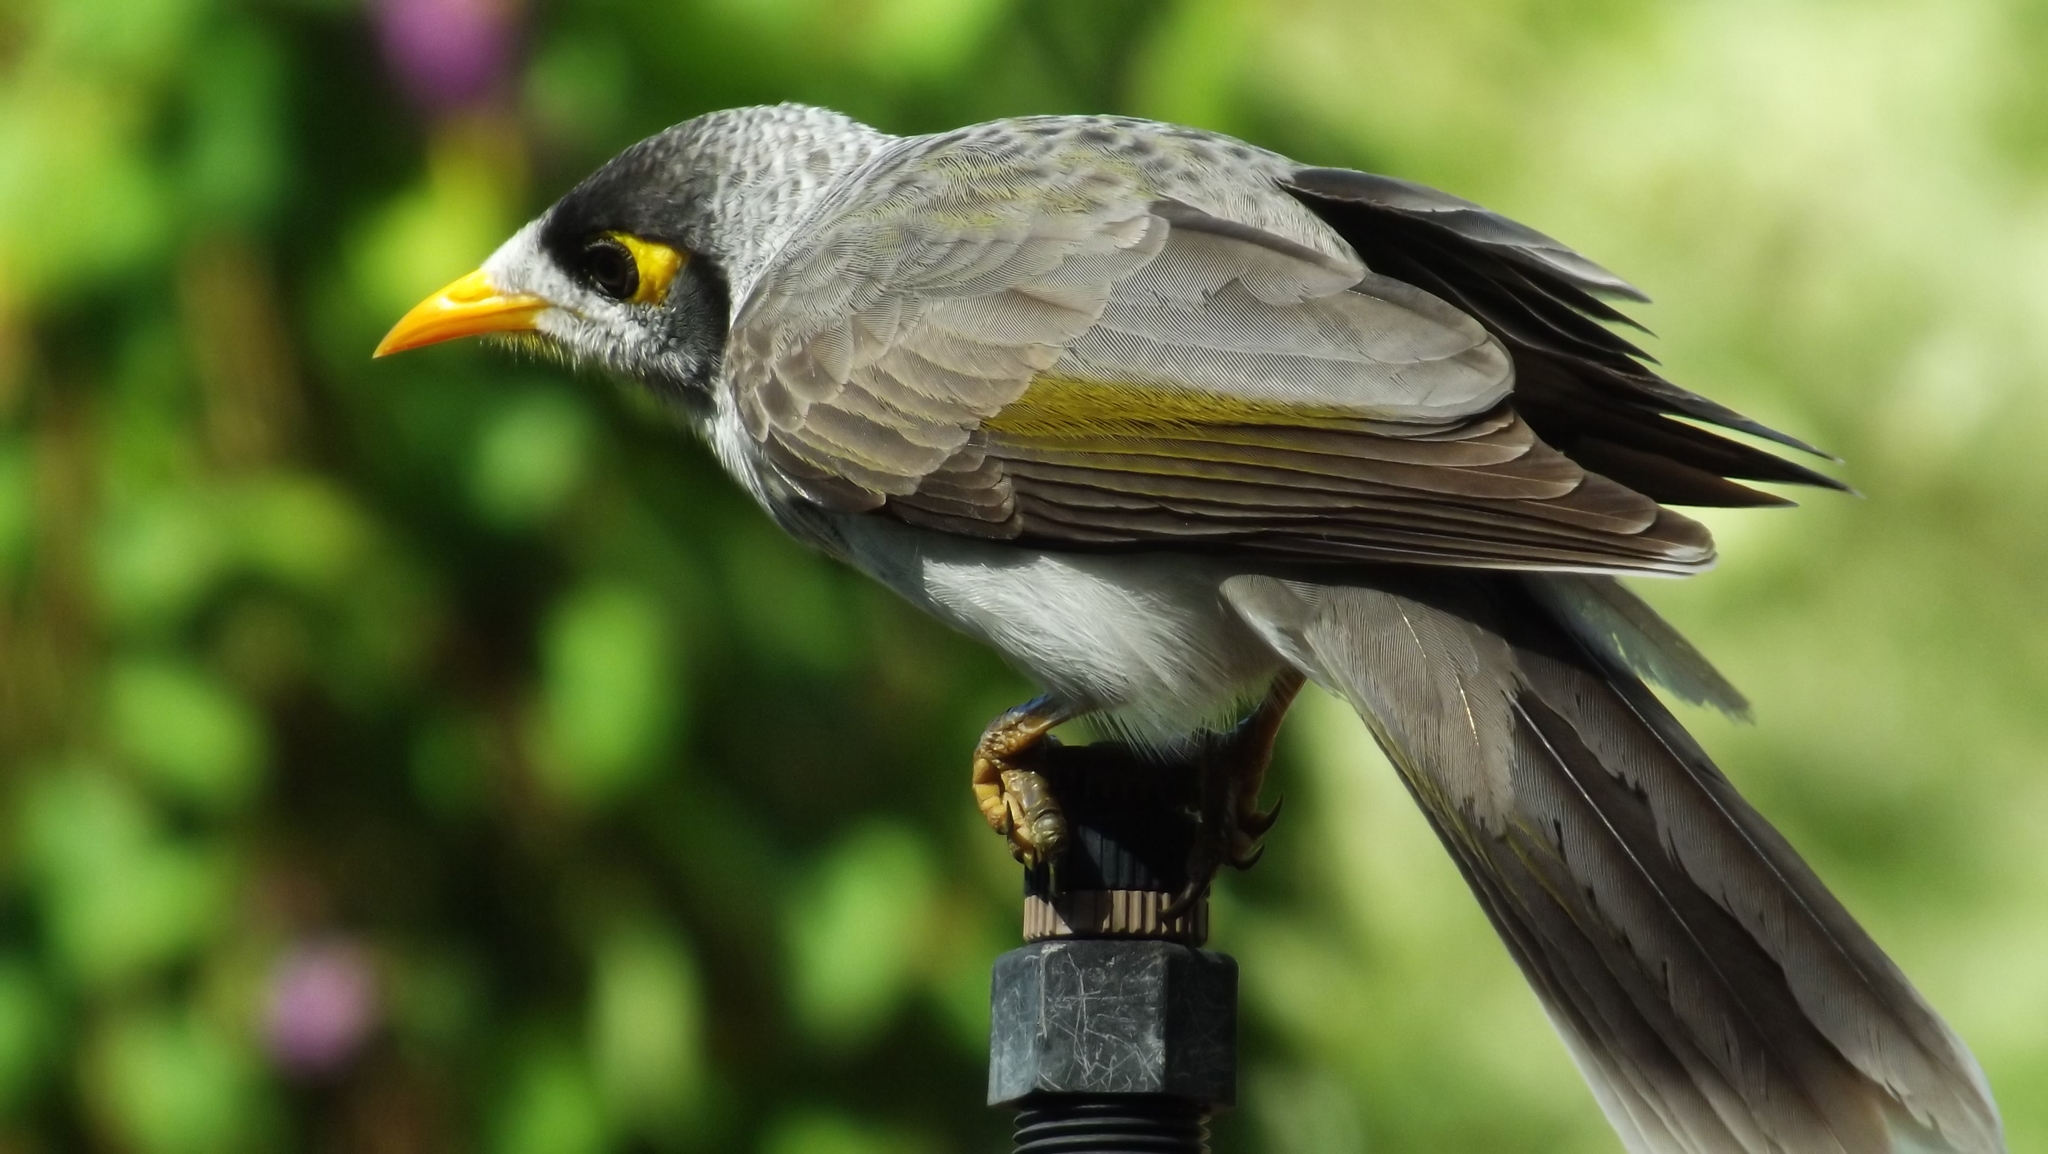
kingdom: Animalia
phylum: Chordata
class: Aves
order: Passeriformes
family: Meliphagidae
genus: Manorina
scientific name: Manorina melanocephala
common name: Noisy miner
